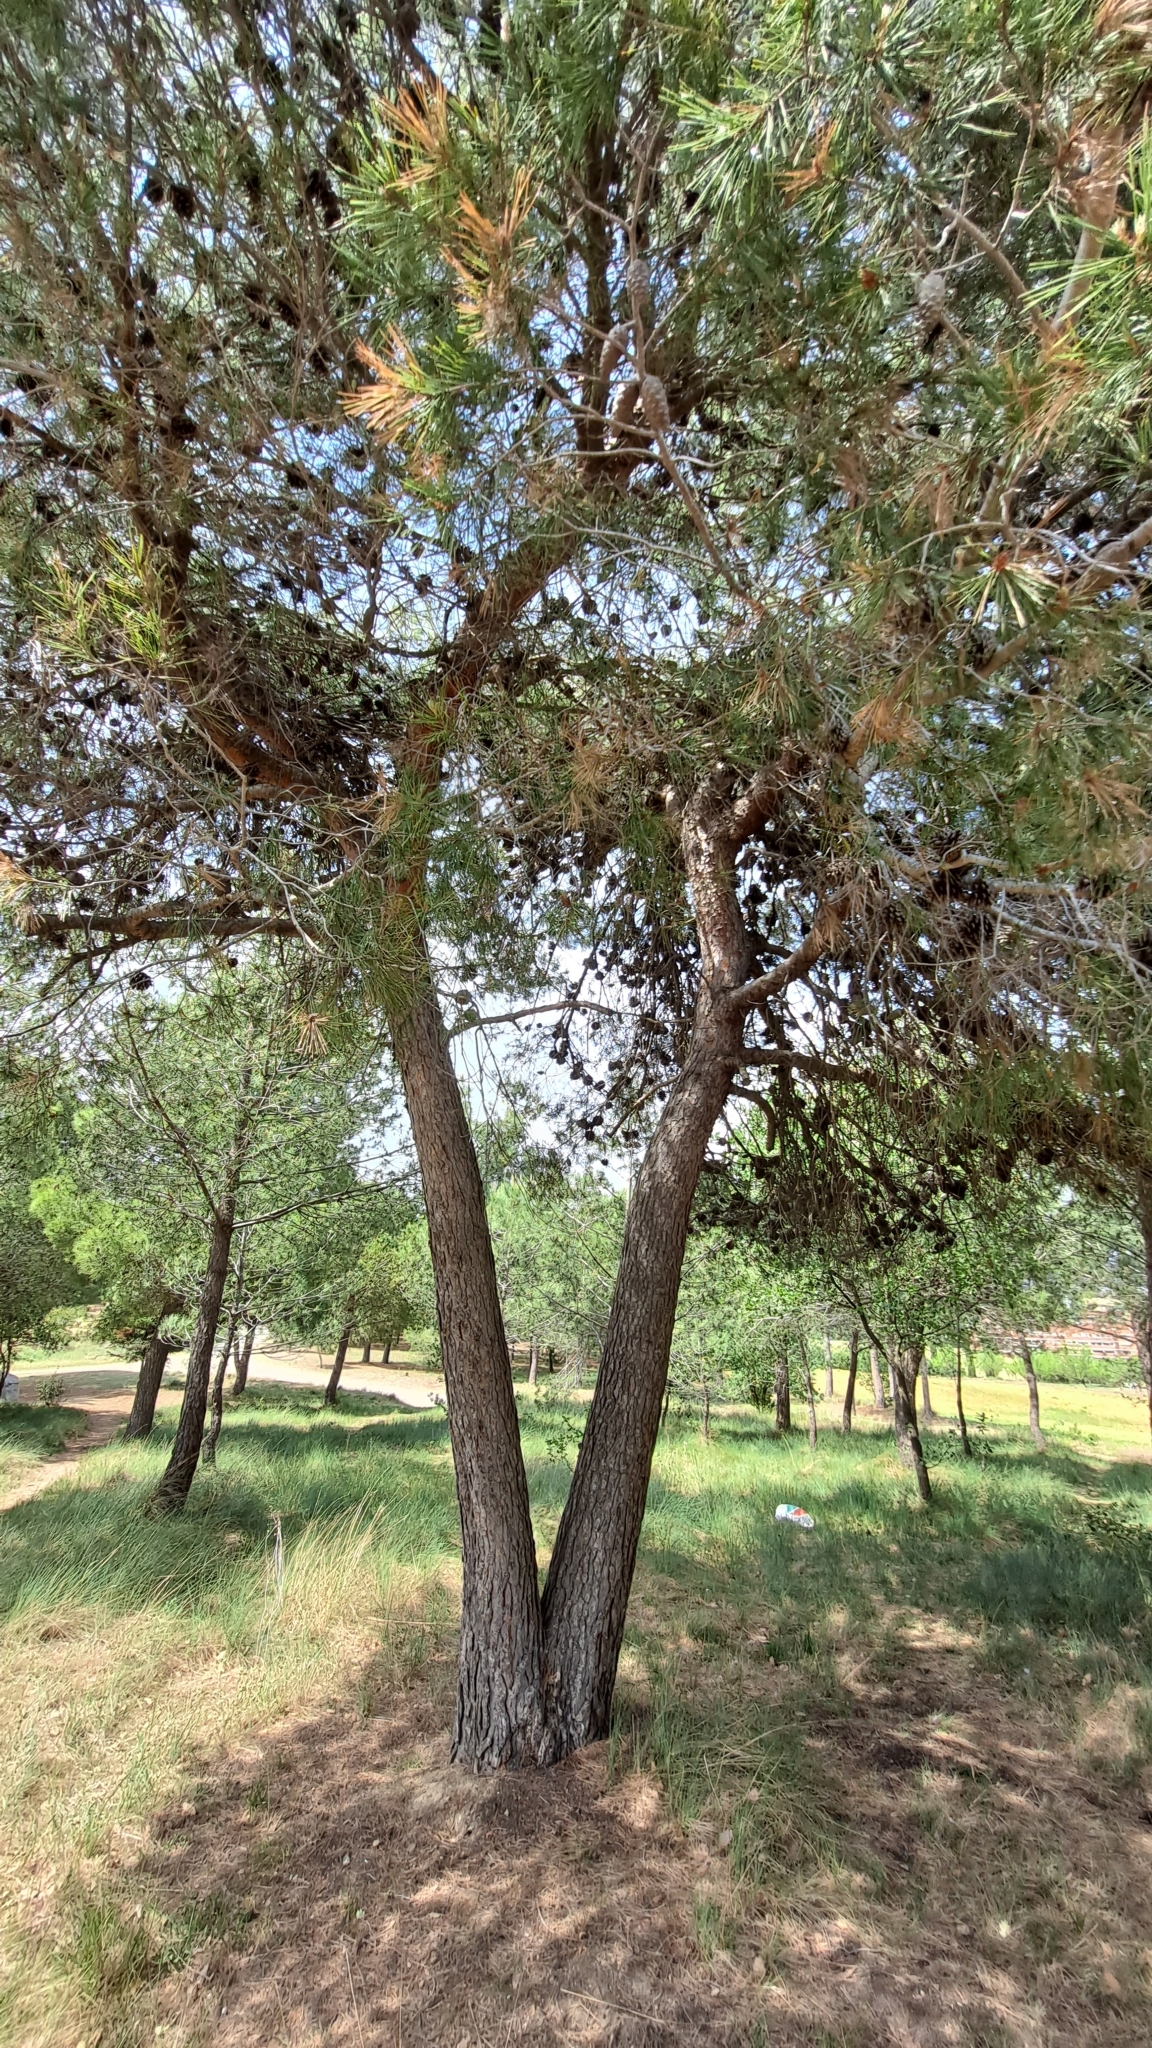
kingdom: Plantae
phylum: Tracheophyta
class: Pinopsida
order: Pinales
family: Pinaceae
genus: Pinus
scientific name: Pinus halepensis
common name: Aleppo pine
